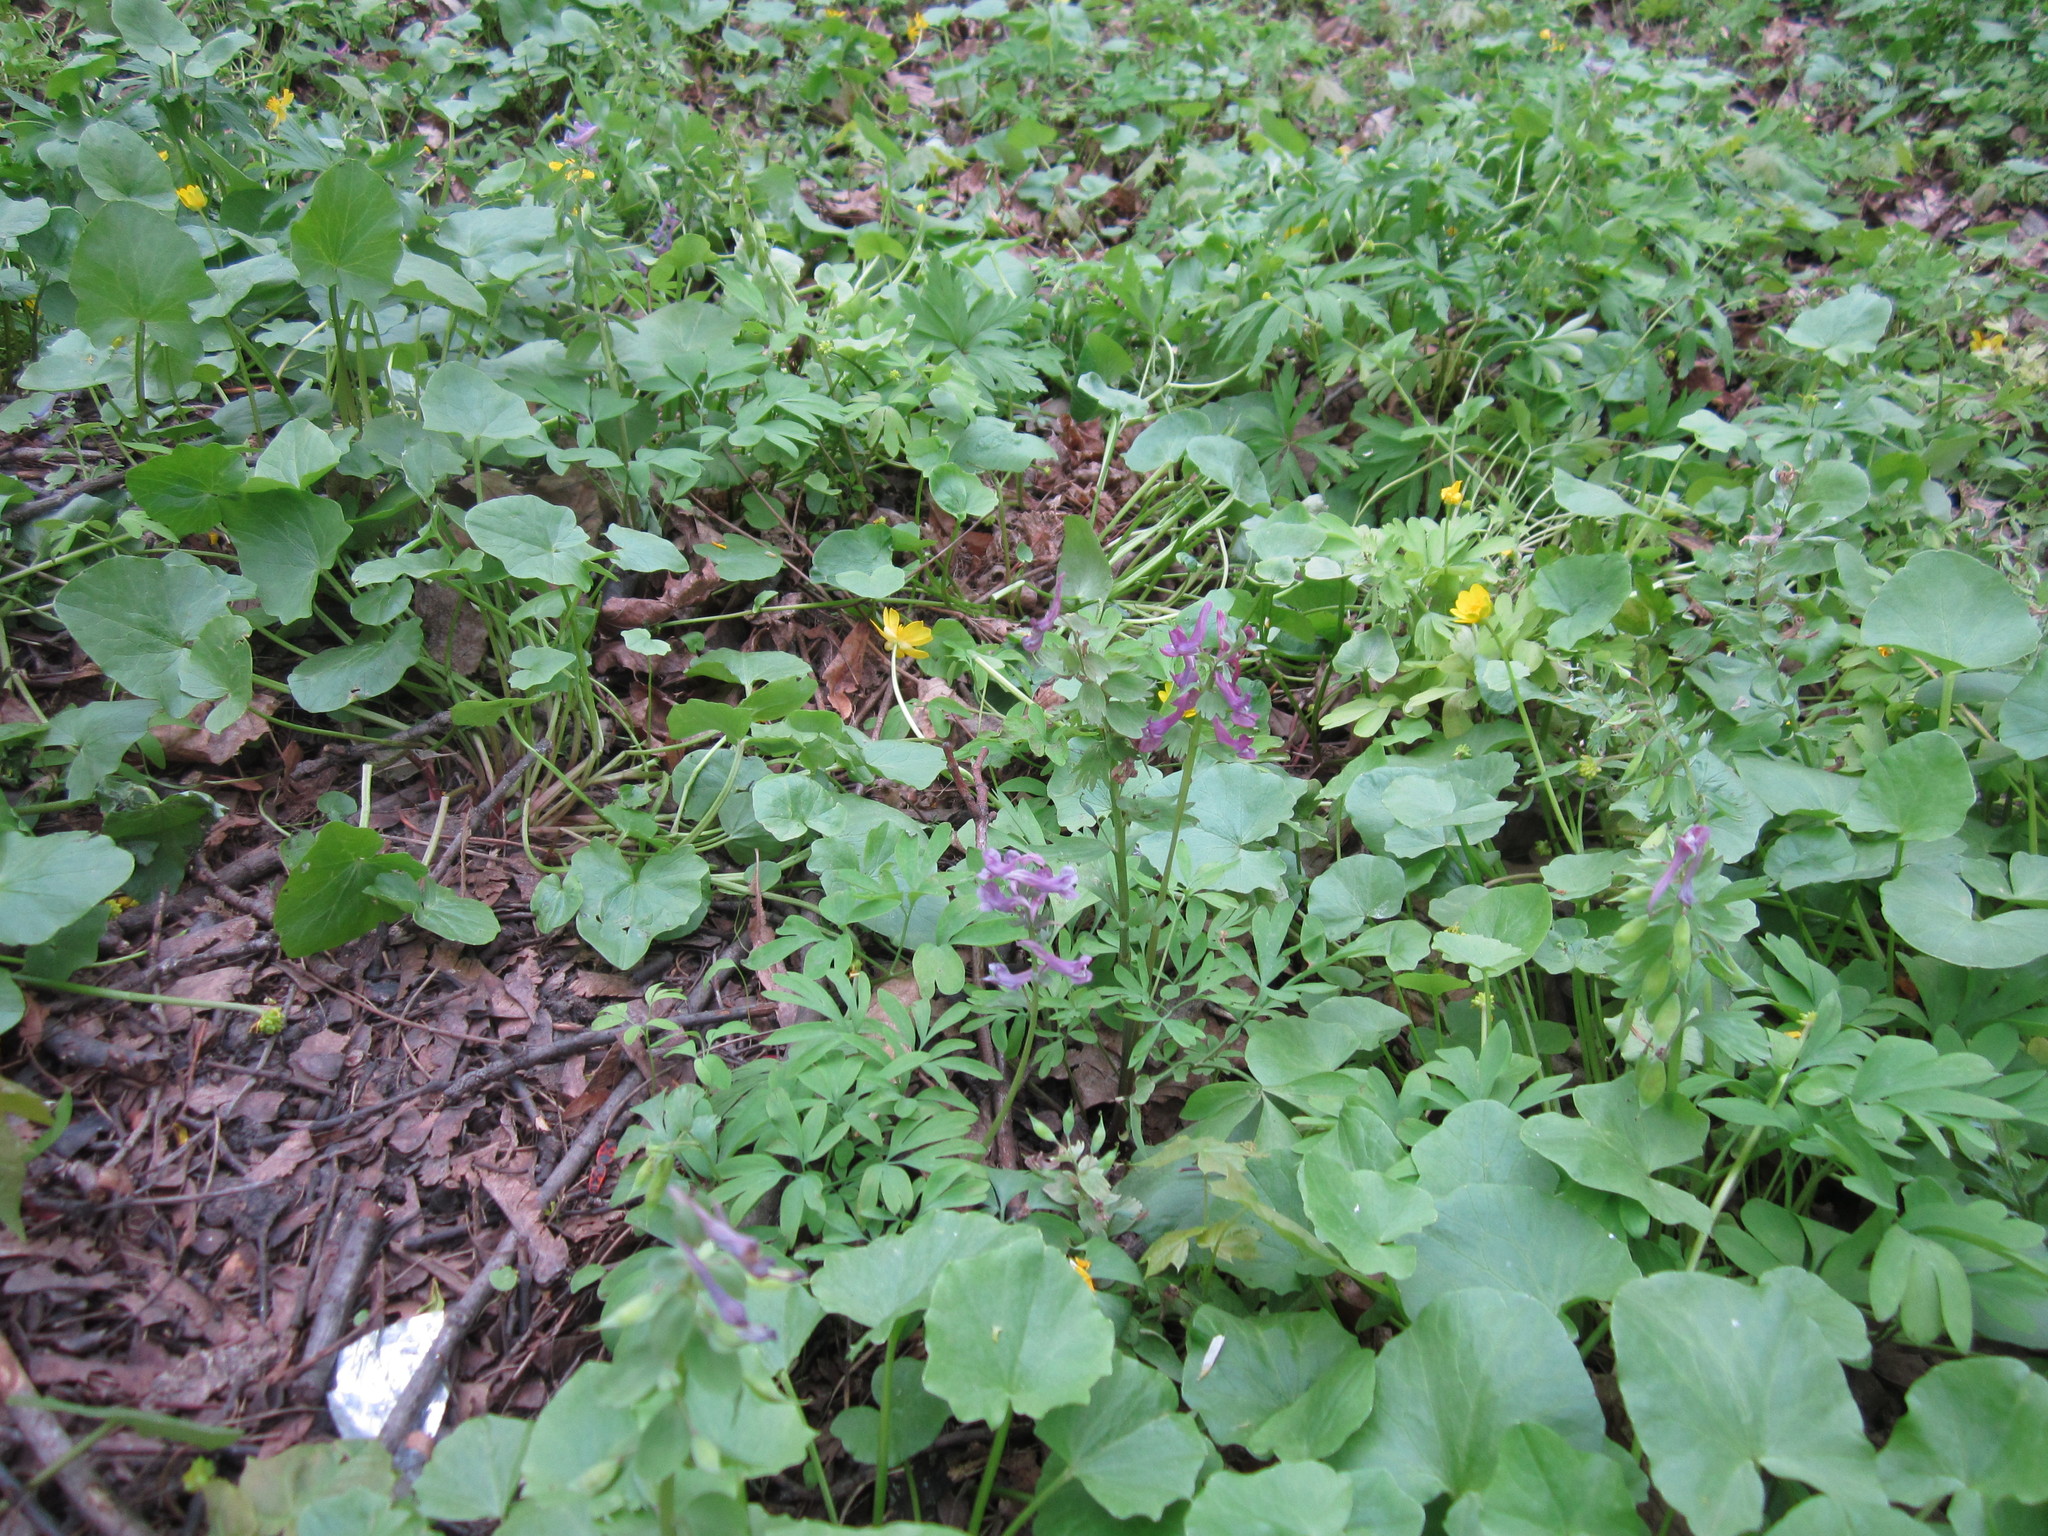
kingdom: Plantae
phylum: Tracheophyta
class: Magnoliopsida
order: Ranunculales
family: Papaveraceae
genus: Corydalis
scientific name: Corydalis solida
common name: Bird-in-a-bush
